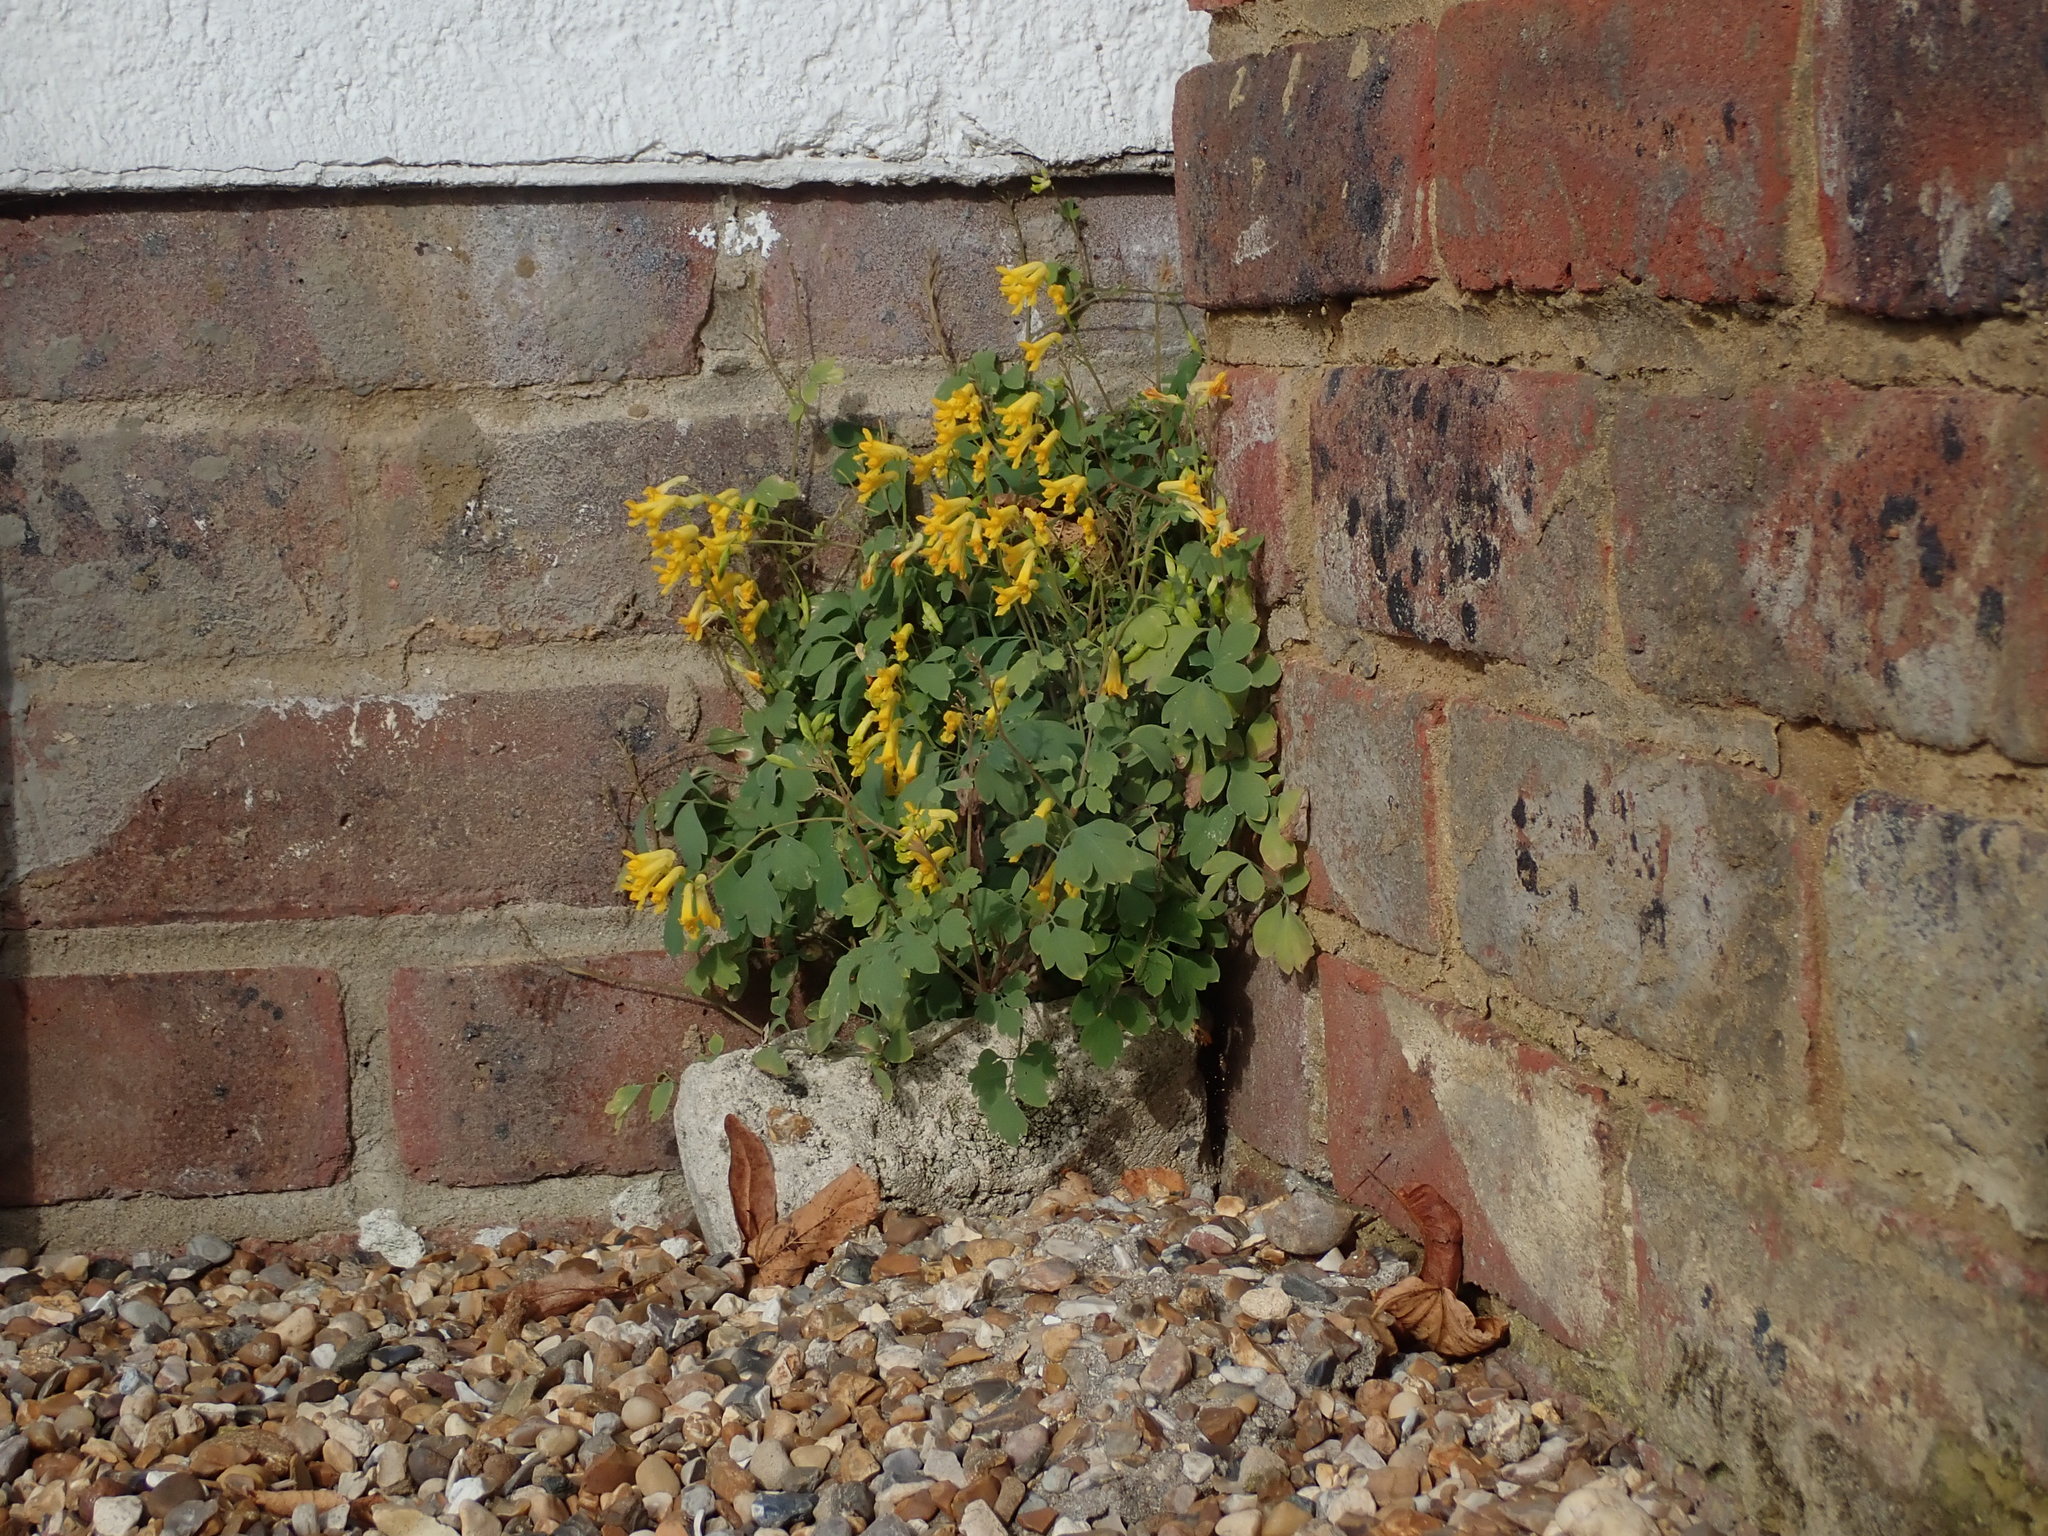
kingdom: Plantae
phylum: Tracheophyta
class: Magnoliopsida
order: Ranunculales
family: Papaveraceae
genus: Pseudofumaria
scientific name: Pseudofumaria lutea
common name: Yellow corydalis
